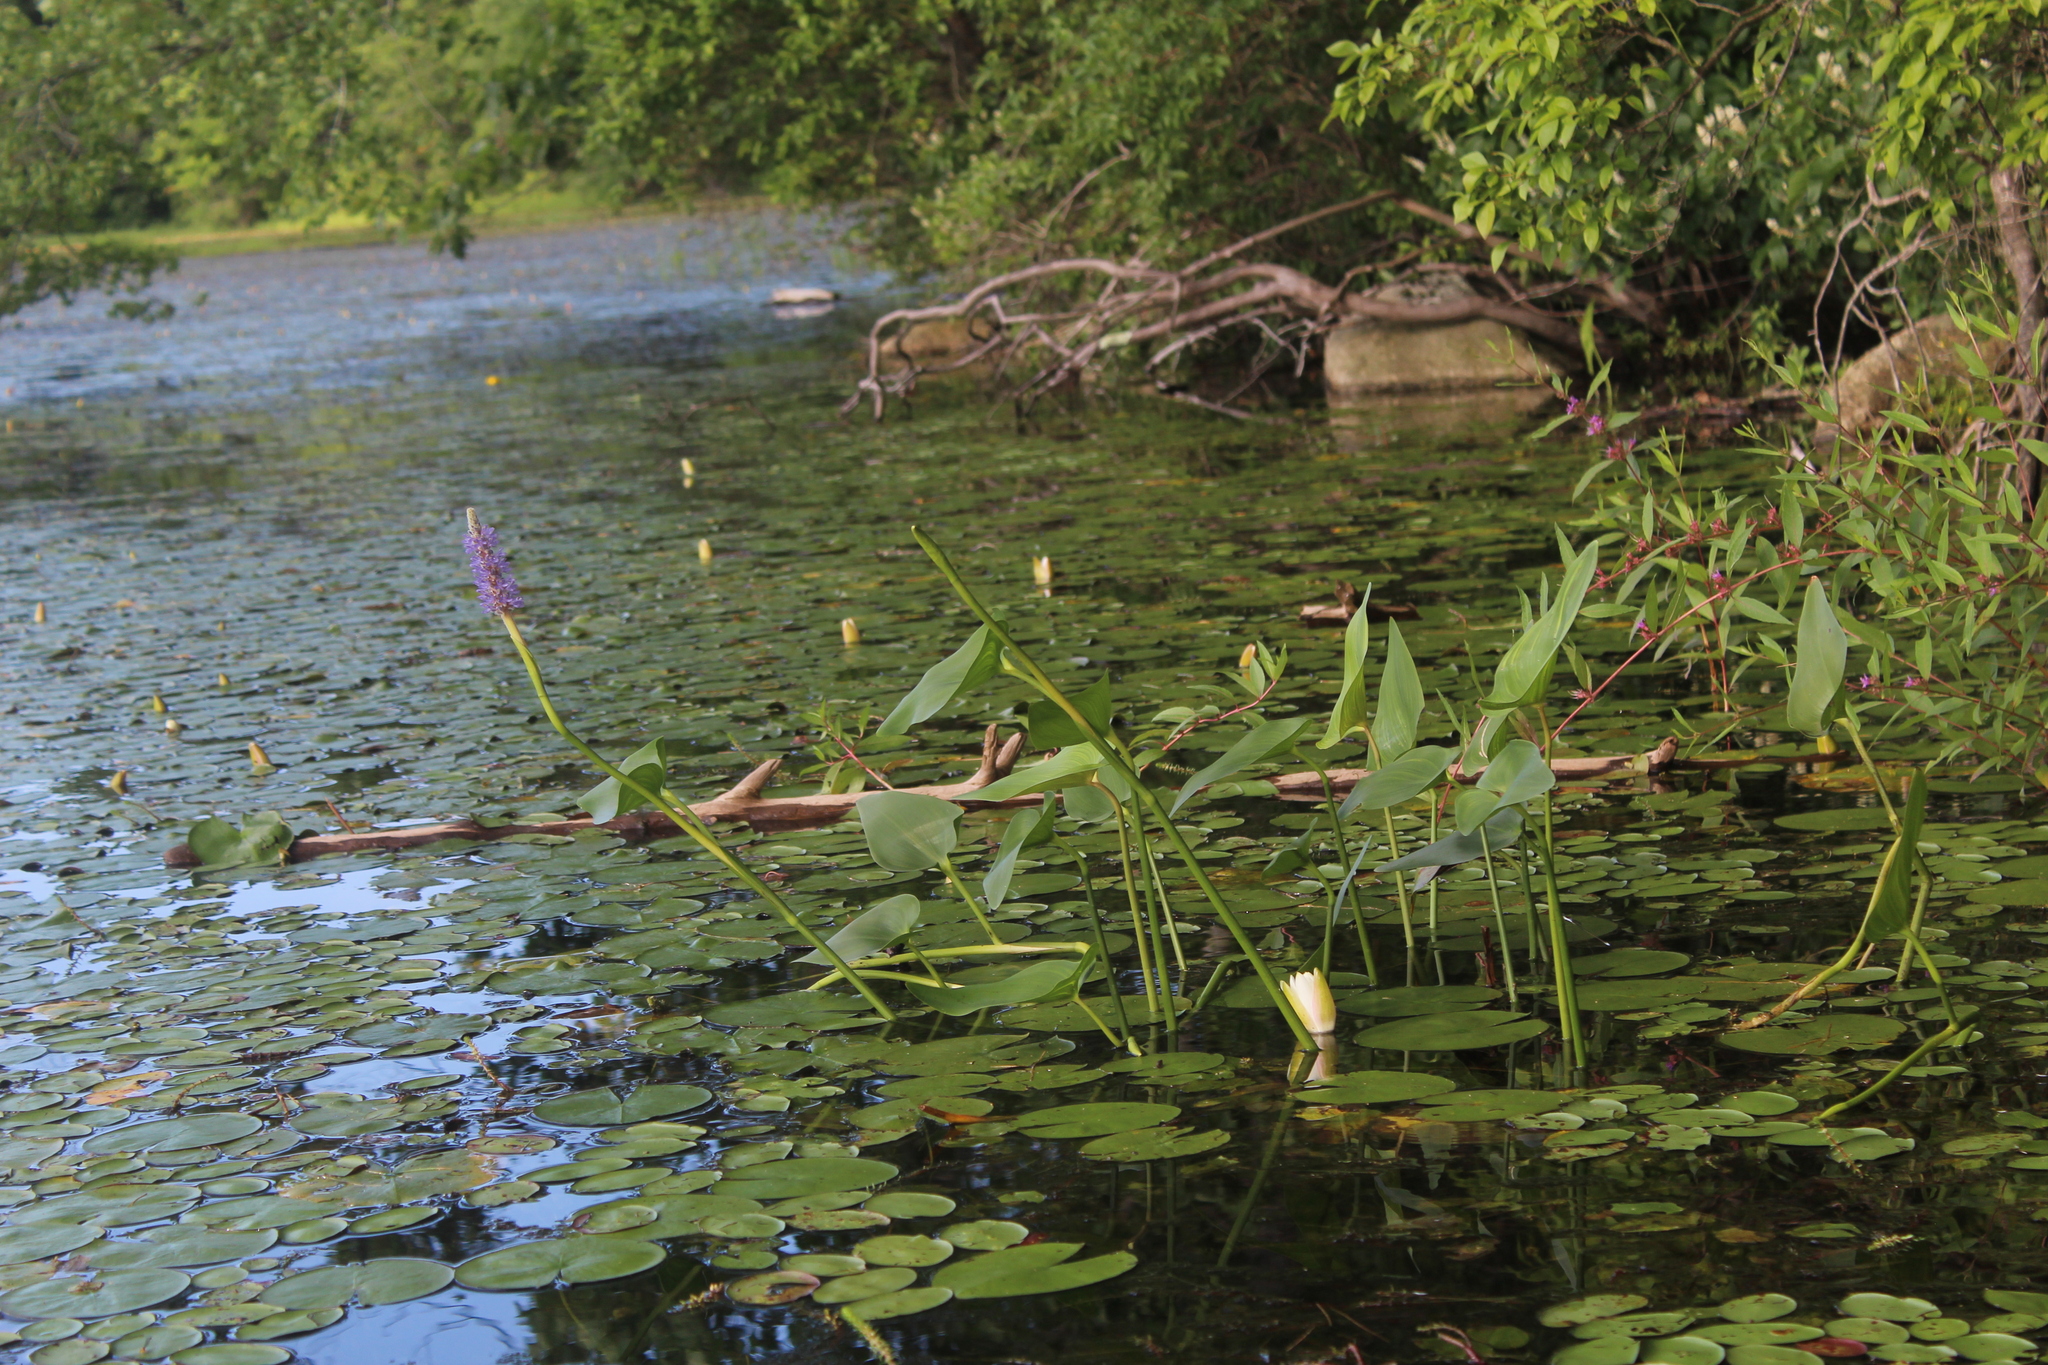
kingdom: Plantae
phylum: Tracheophyta
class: Liliopsida
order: Commelinales
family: Pontederiaceae
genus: Pontederia
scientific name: Pontederia cordata
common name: Pickerelweed
